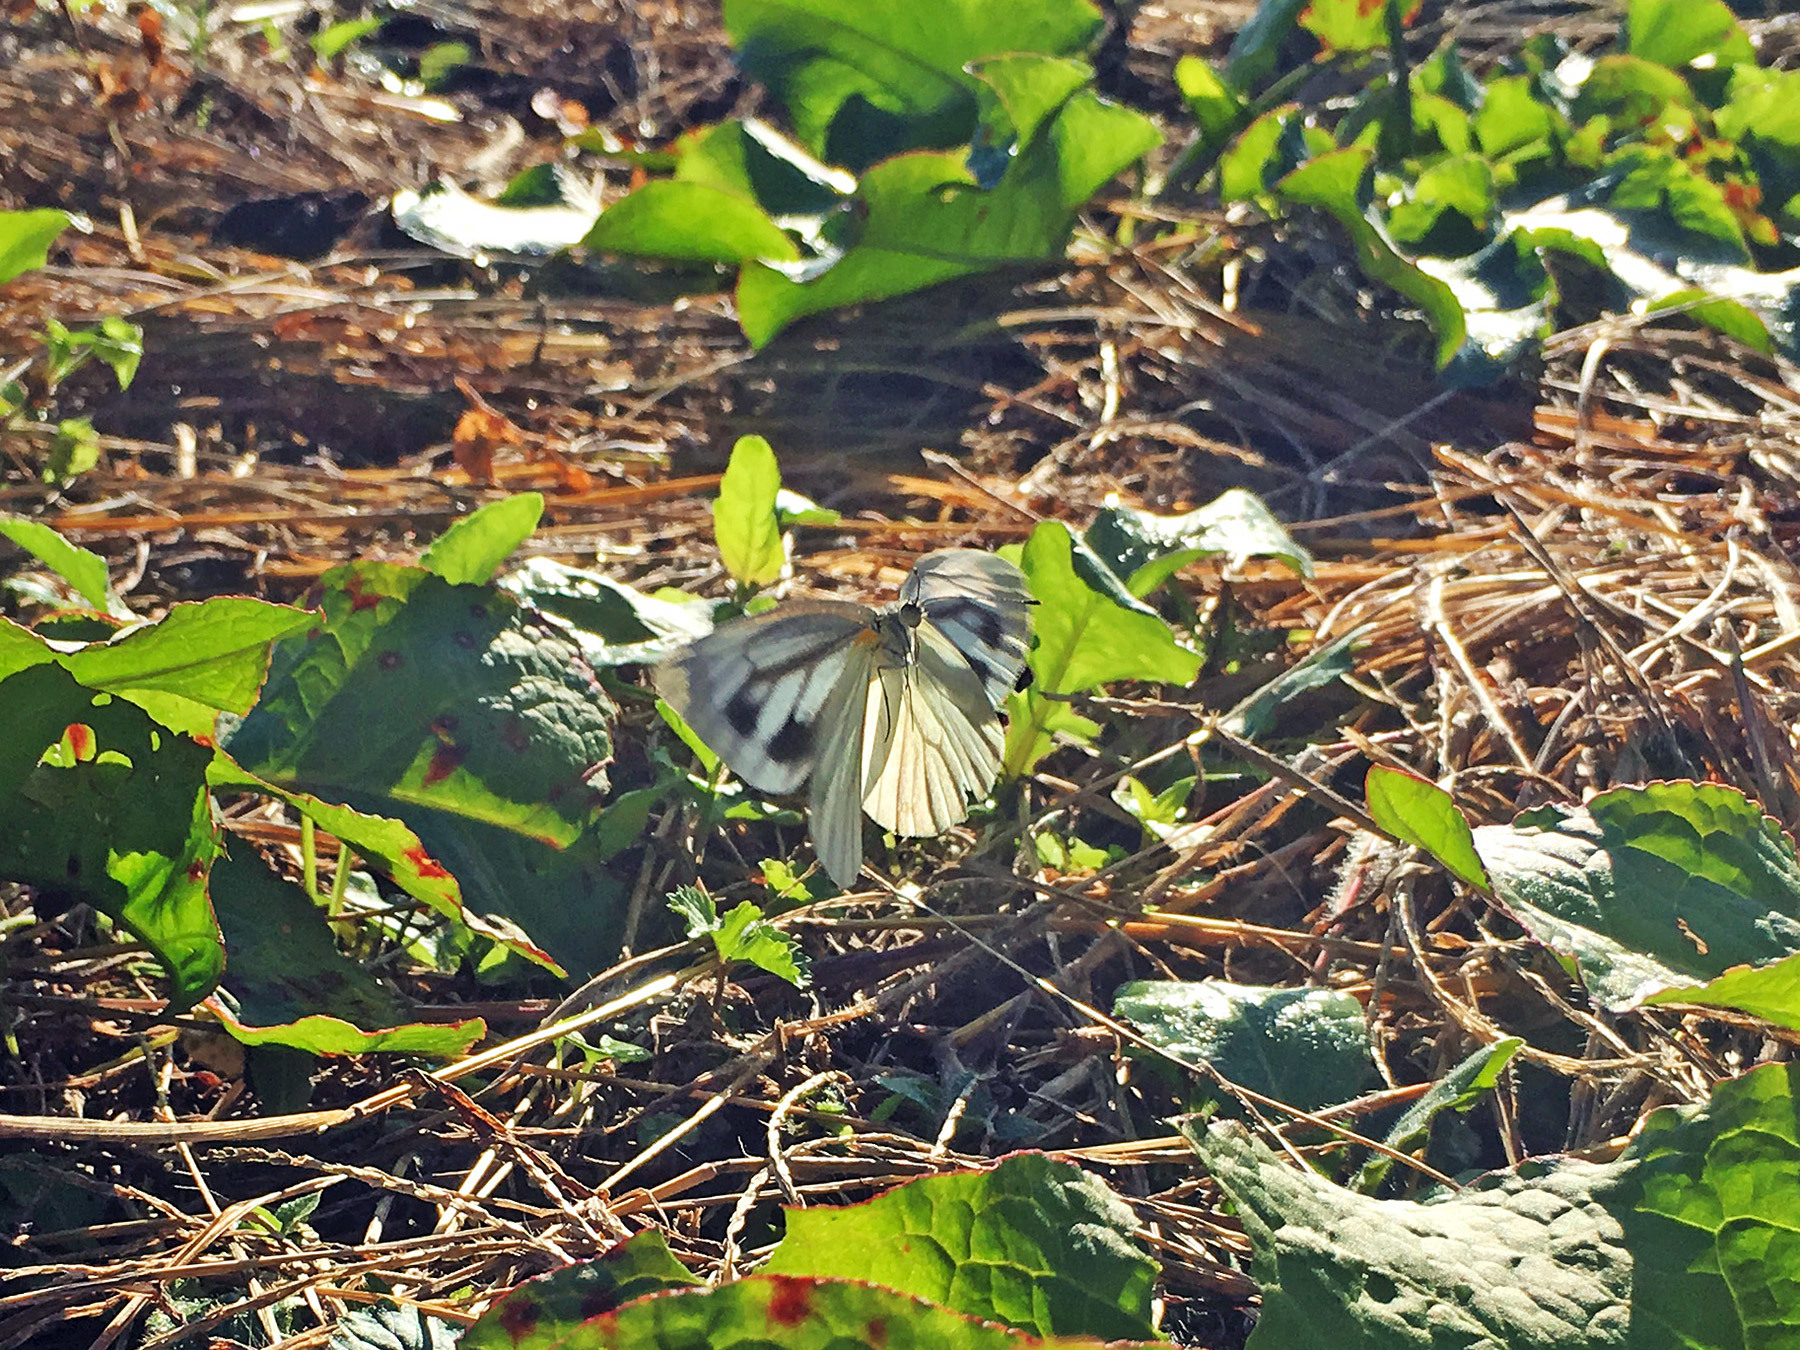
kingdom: Animalia
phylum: Arthropoda
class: Insecta
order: Lepidoptera
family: Pieridae
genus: Pieris
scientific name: Pieris melete
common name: Asian green-veined white
